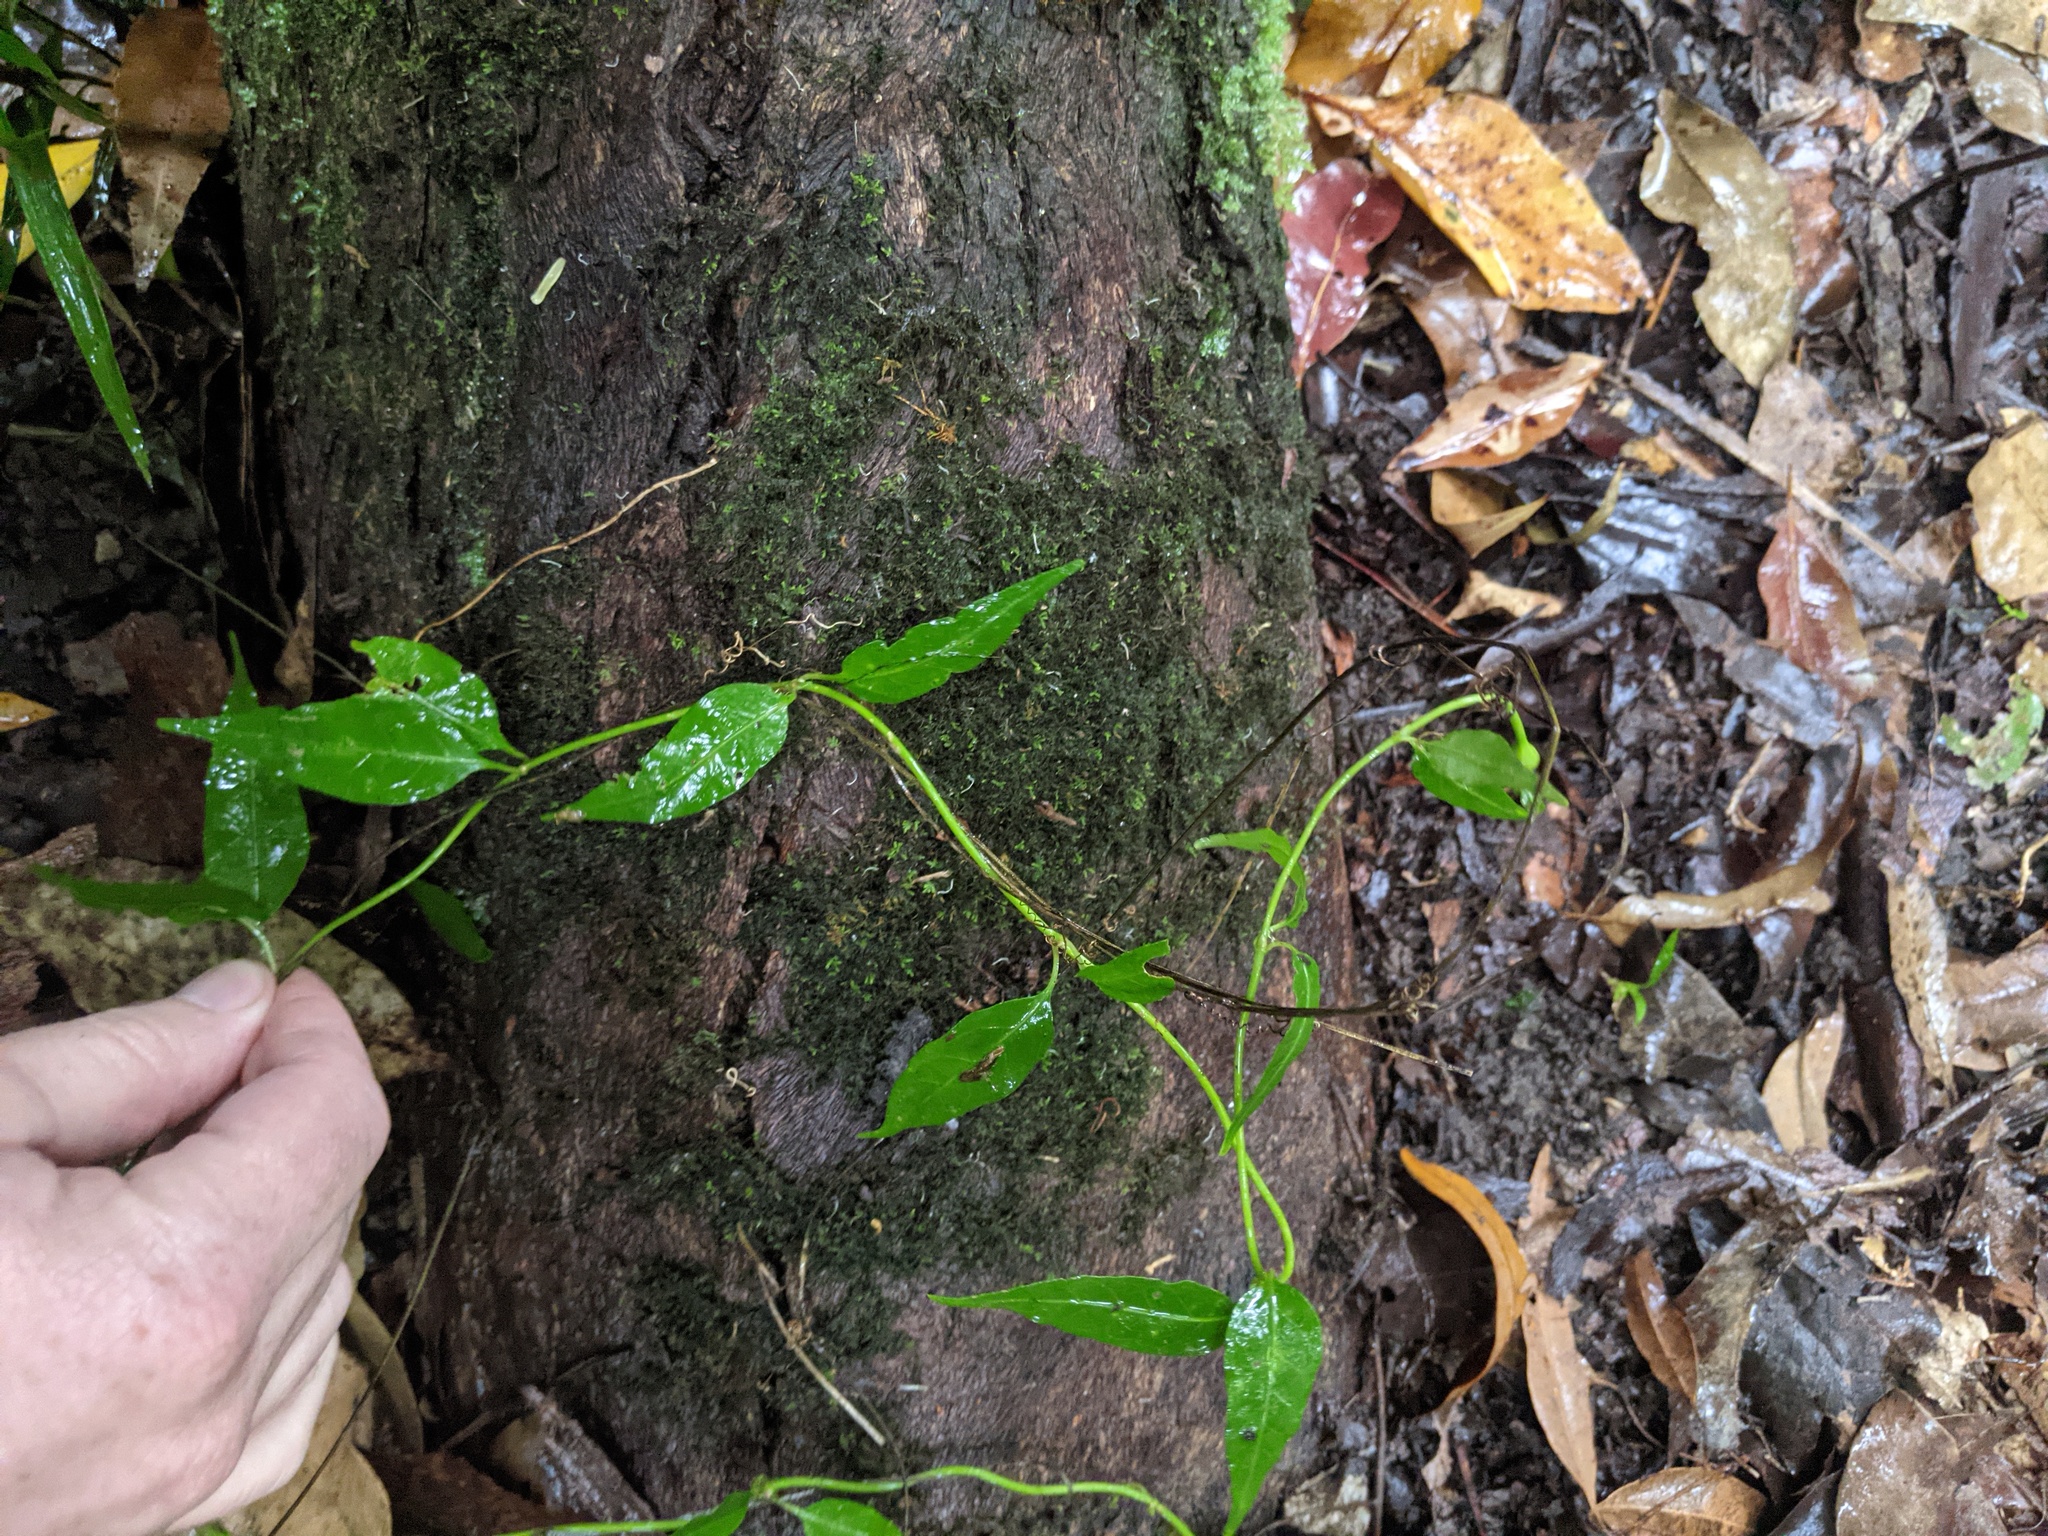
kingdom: Plantae
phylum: Tracheophyta
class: Magnoliopsida
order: Gentianales
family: Rubiaceae
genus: Gynochthodes
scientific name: Gynochthodes jasminoides
